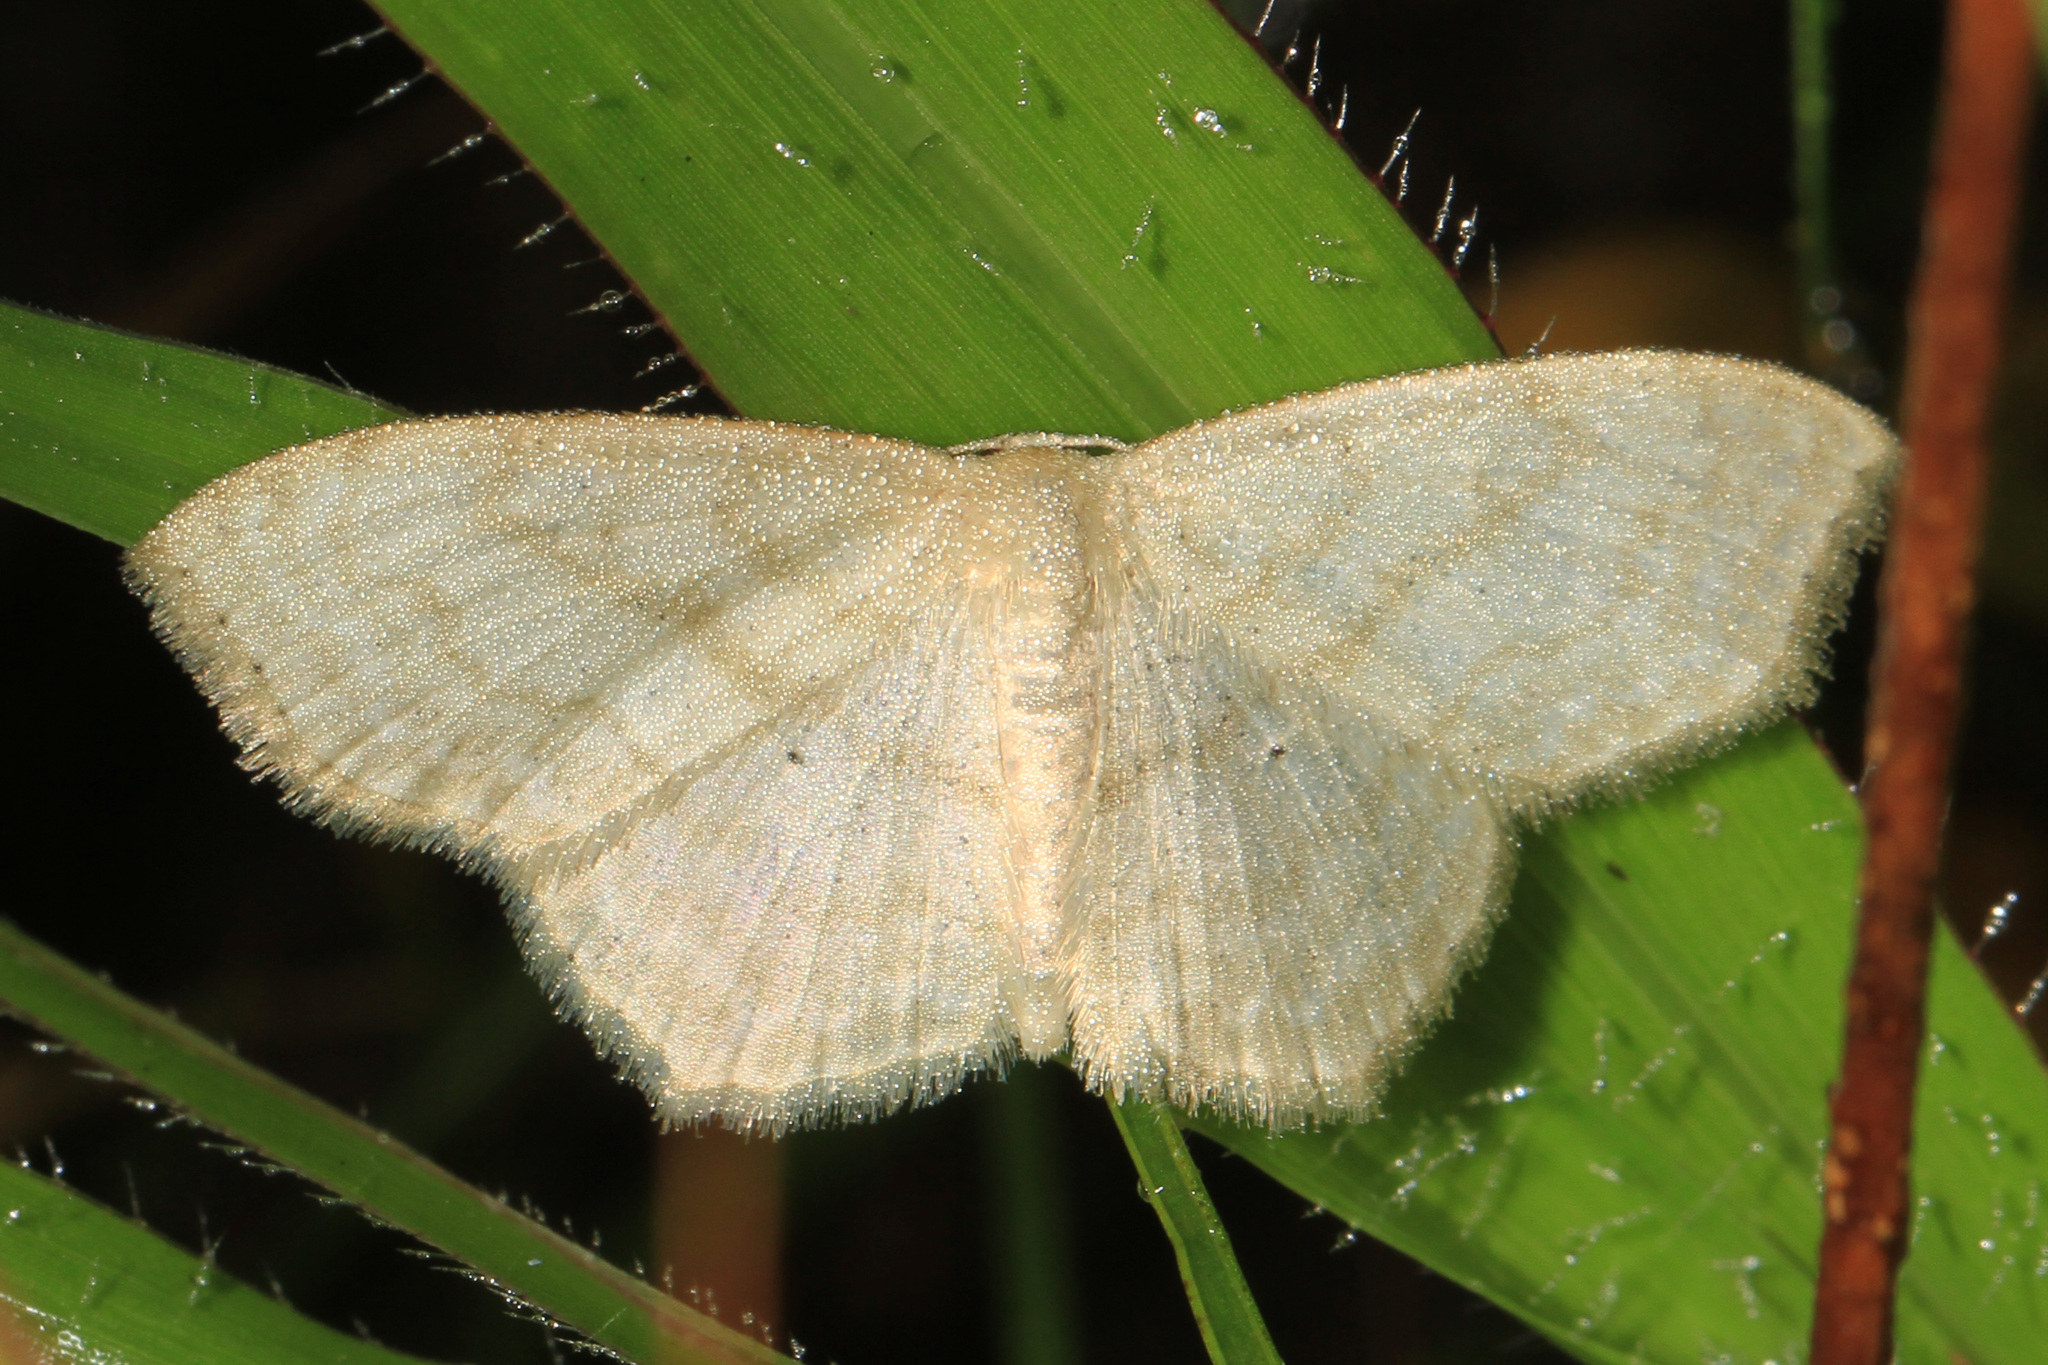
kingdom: Animalia
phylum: Arthropoda
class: Insecta
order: Lepidoptera
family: Geometridae
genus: Scopula
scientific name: Scopula limboundata
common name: Large lace border
